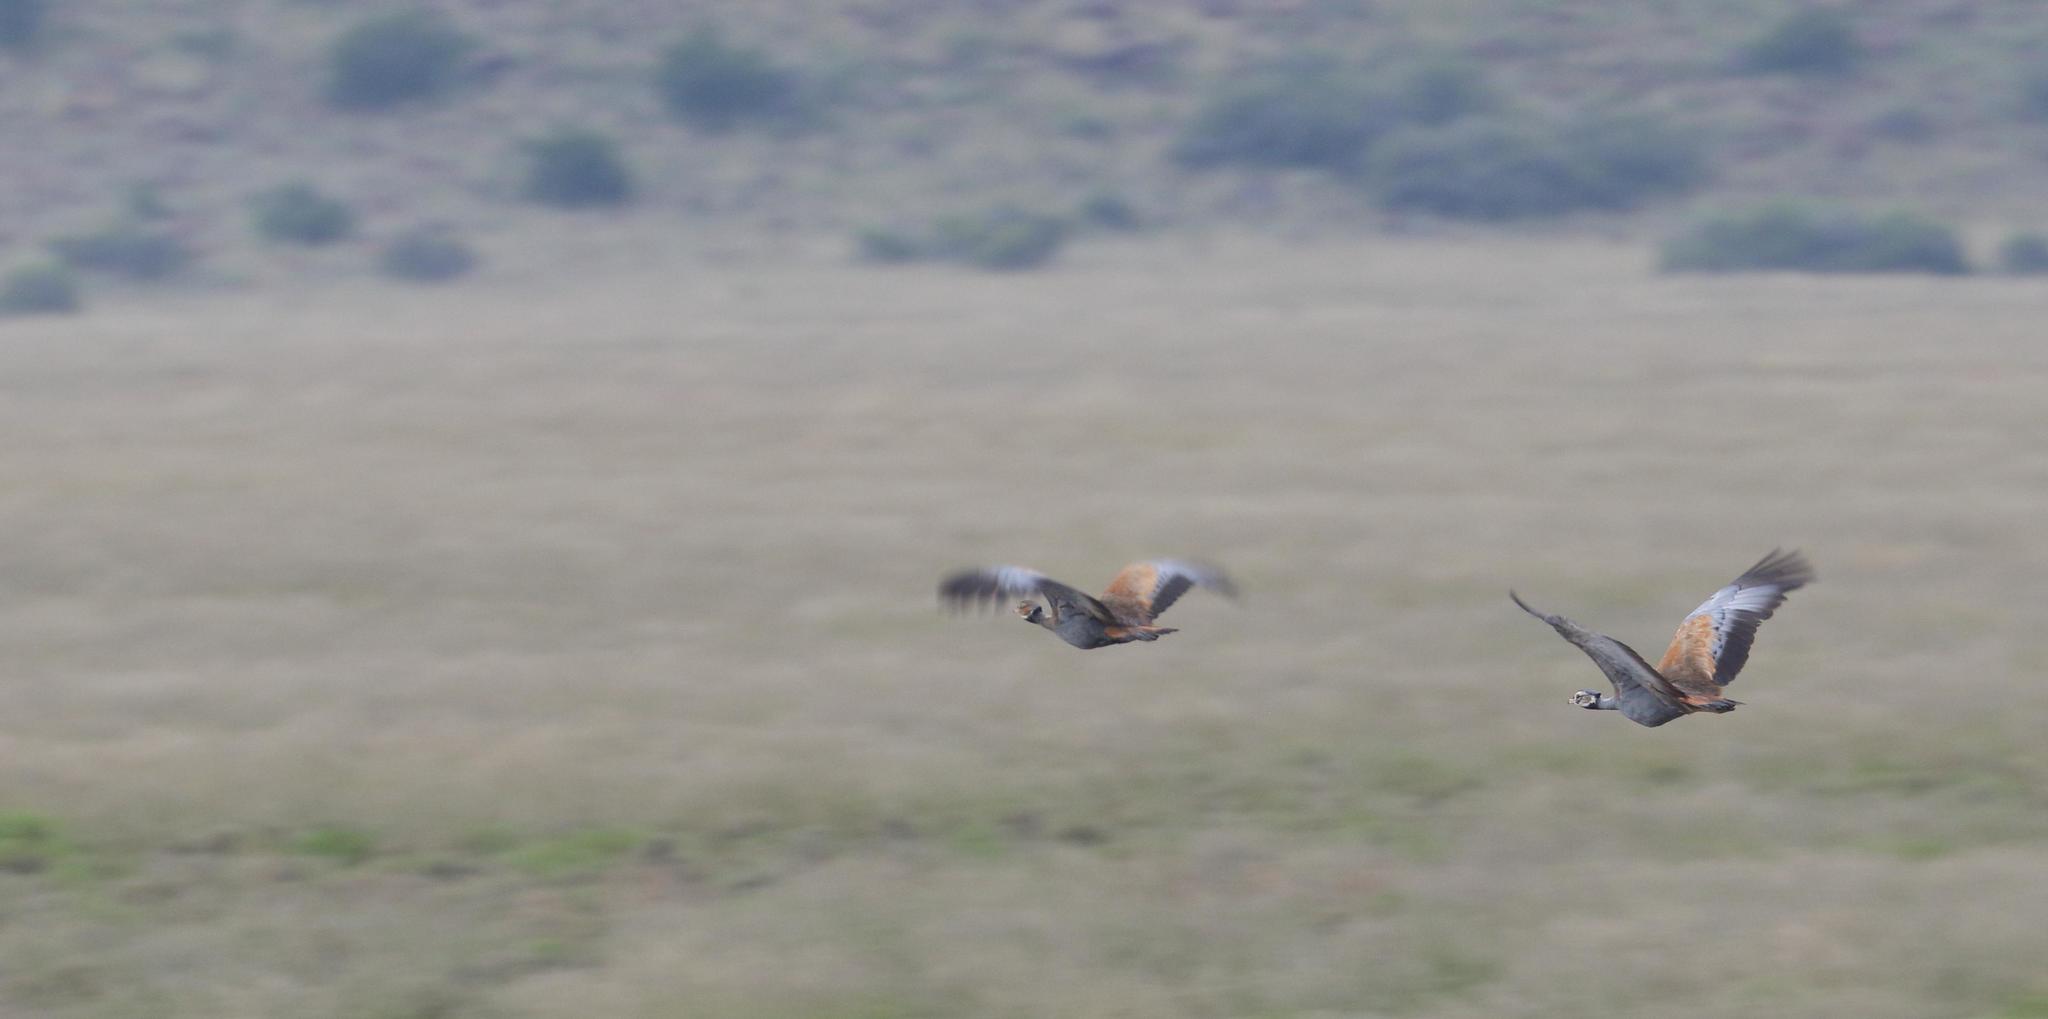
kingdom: Animalia
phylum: Chordata
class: Aves
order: Otidiformes
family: Otididae
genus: Eupodotis
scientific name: Eupodotis caerulescens
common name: Blue korhaan
